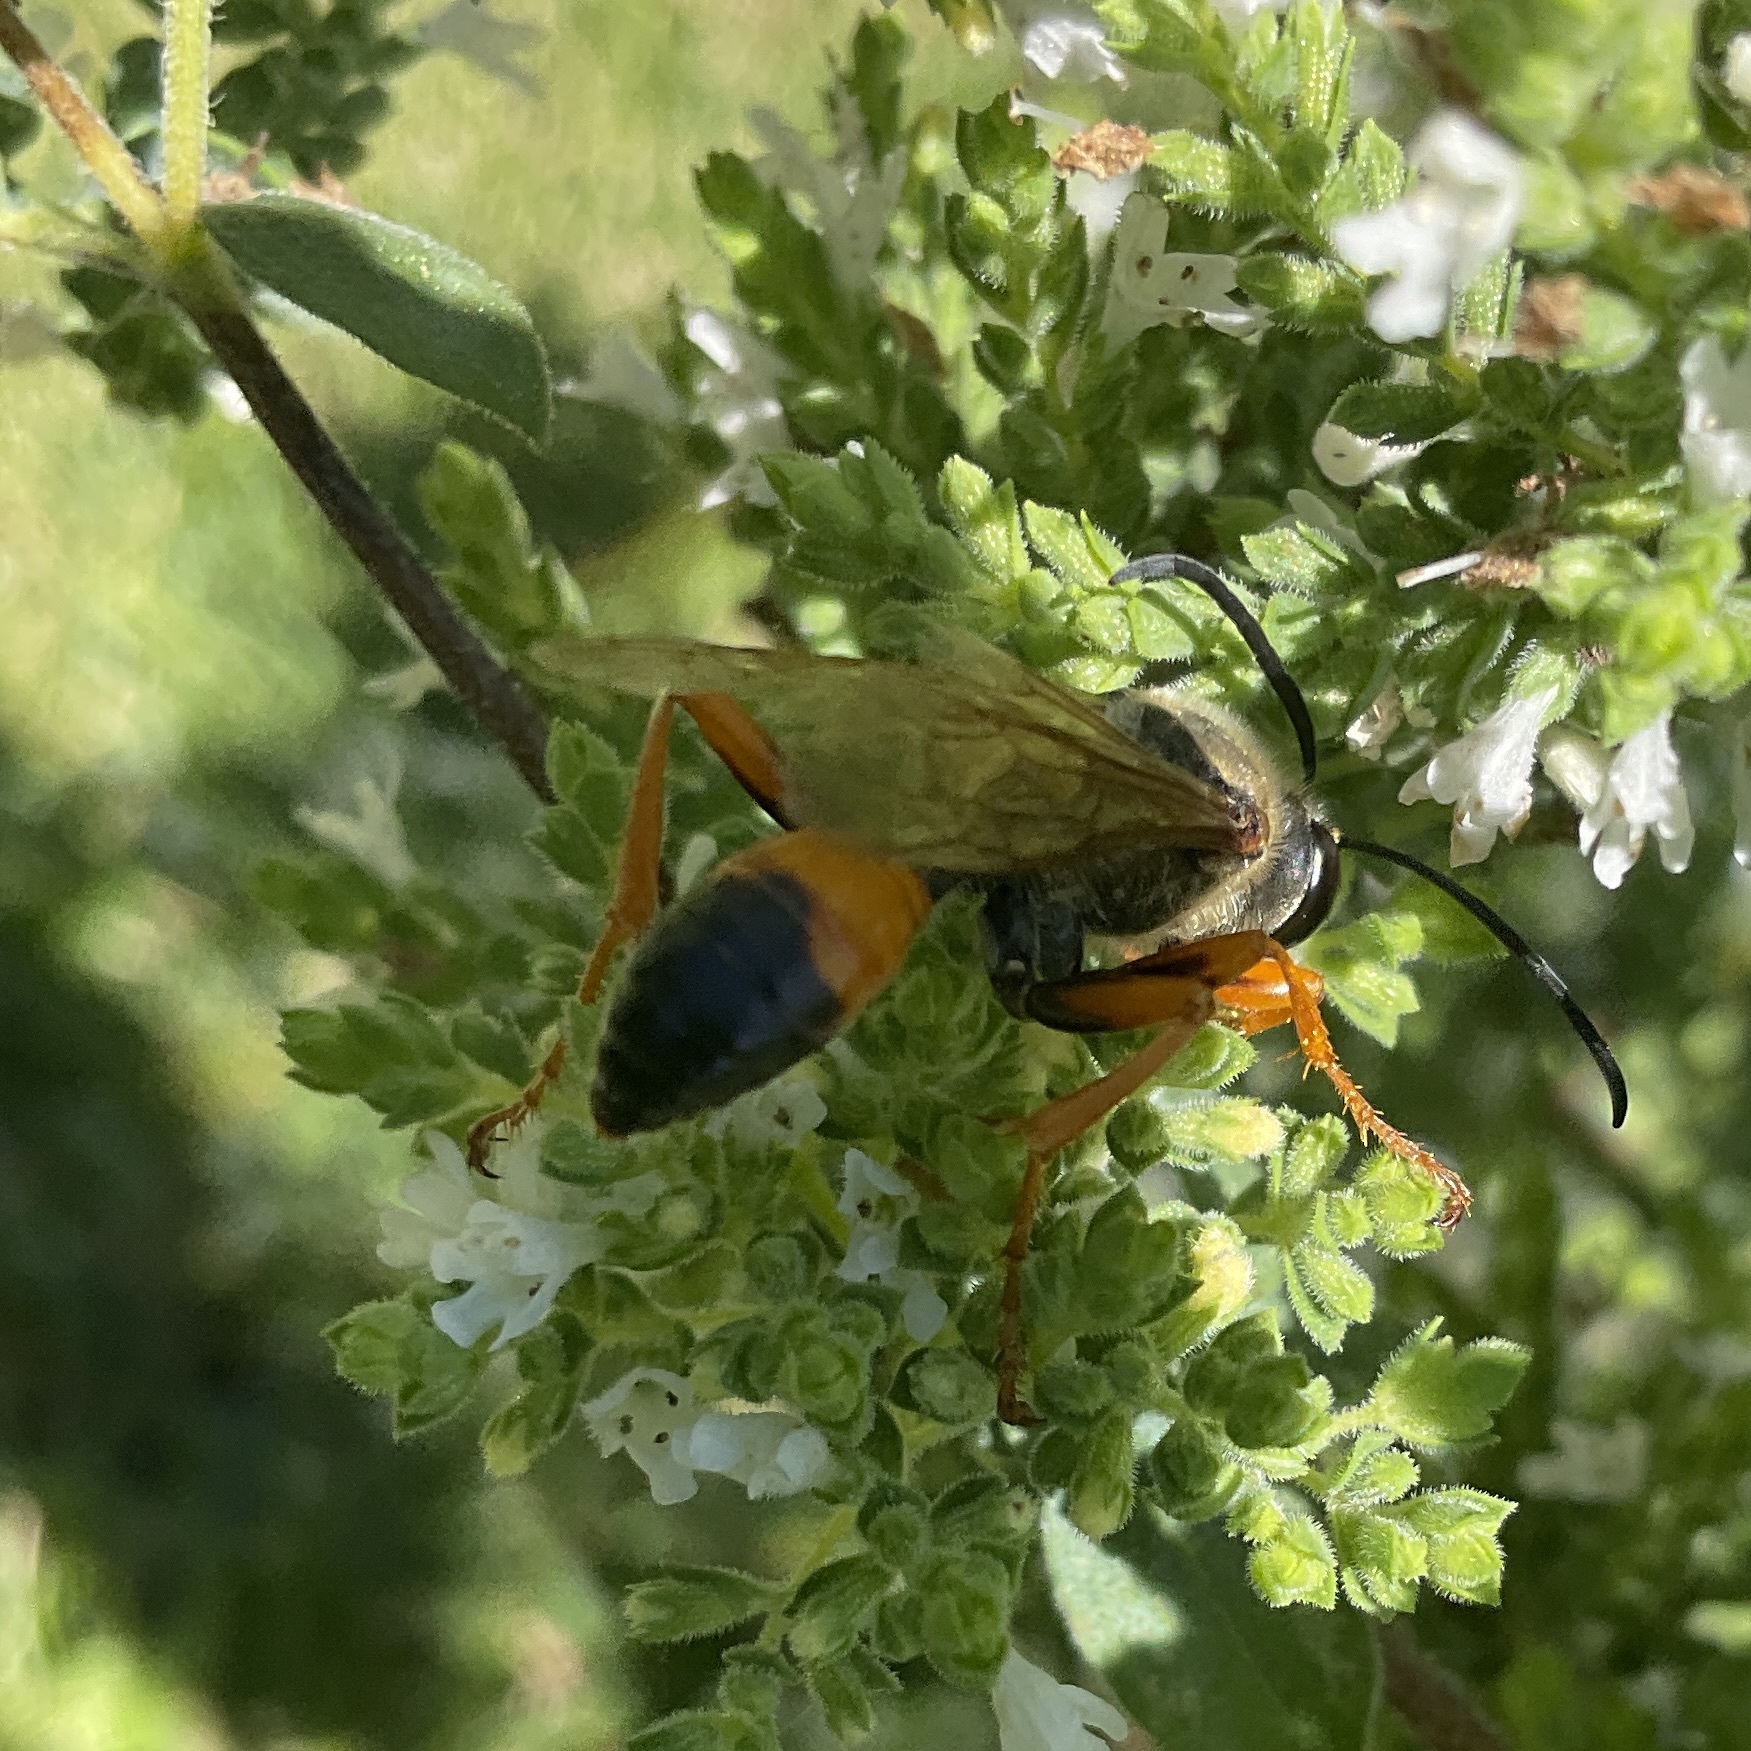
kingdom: Animalia
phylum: Arthropoda
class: Insecta
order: Hymenoptera
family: Sphecidae
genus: Sphex
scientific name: Sphex ichneumoneus
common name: Great golden digger wasp
